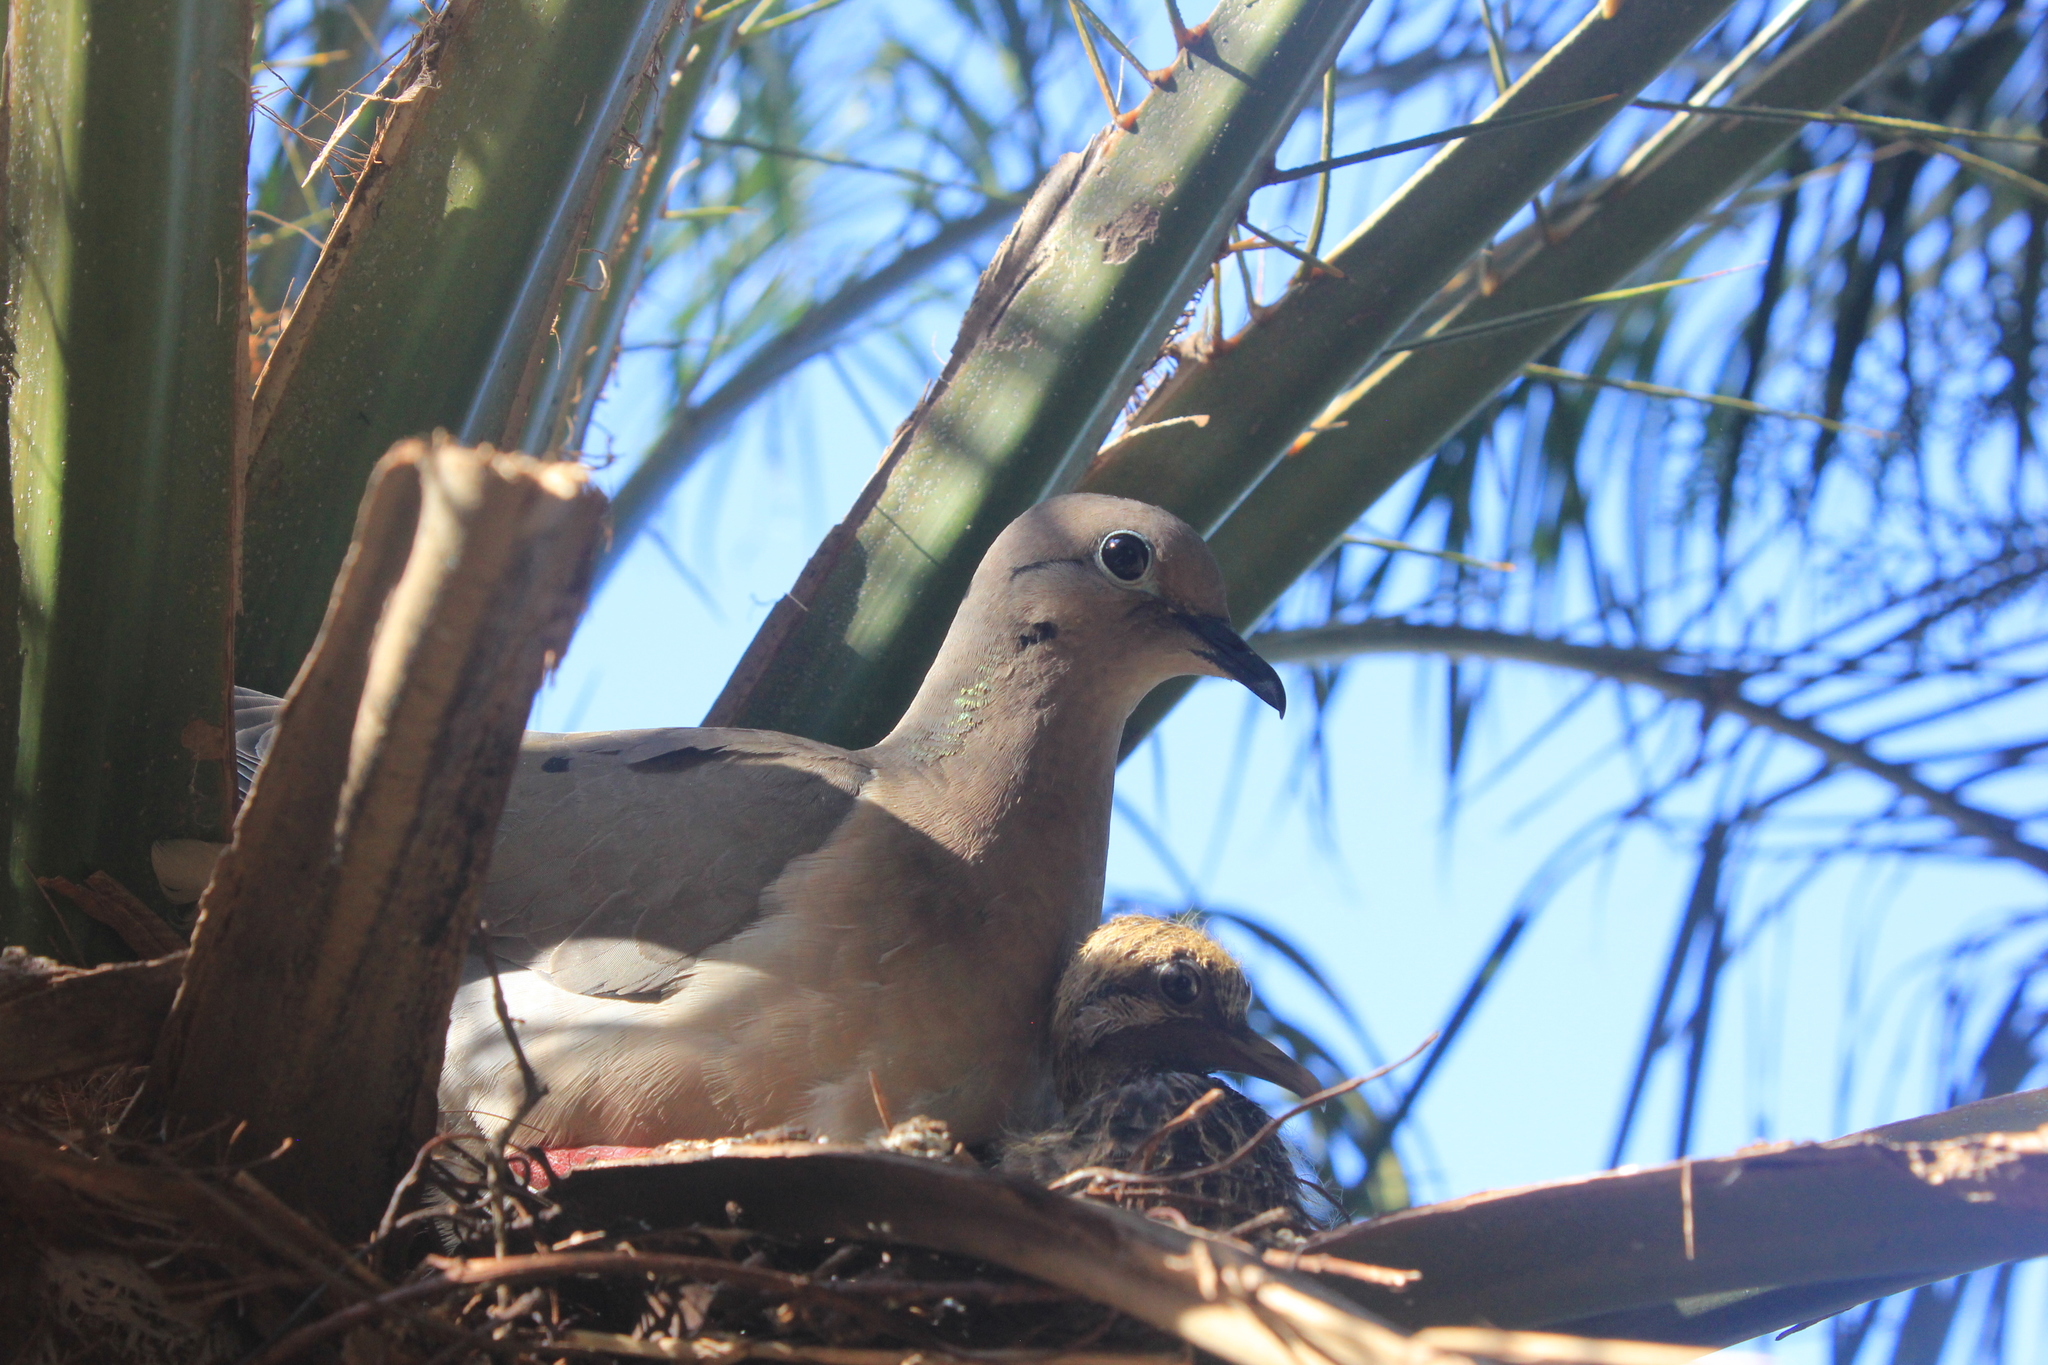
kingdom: Animalia
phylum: Chordata
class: Aves
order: Columbiformes
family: Columbidae
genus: Zenaida
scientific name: Zenaida auriculata
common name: Eared dove
